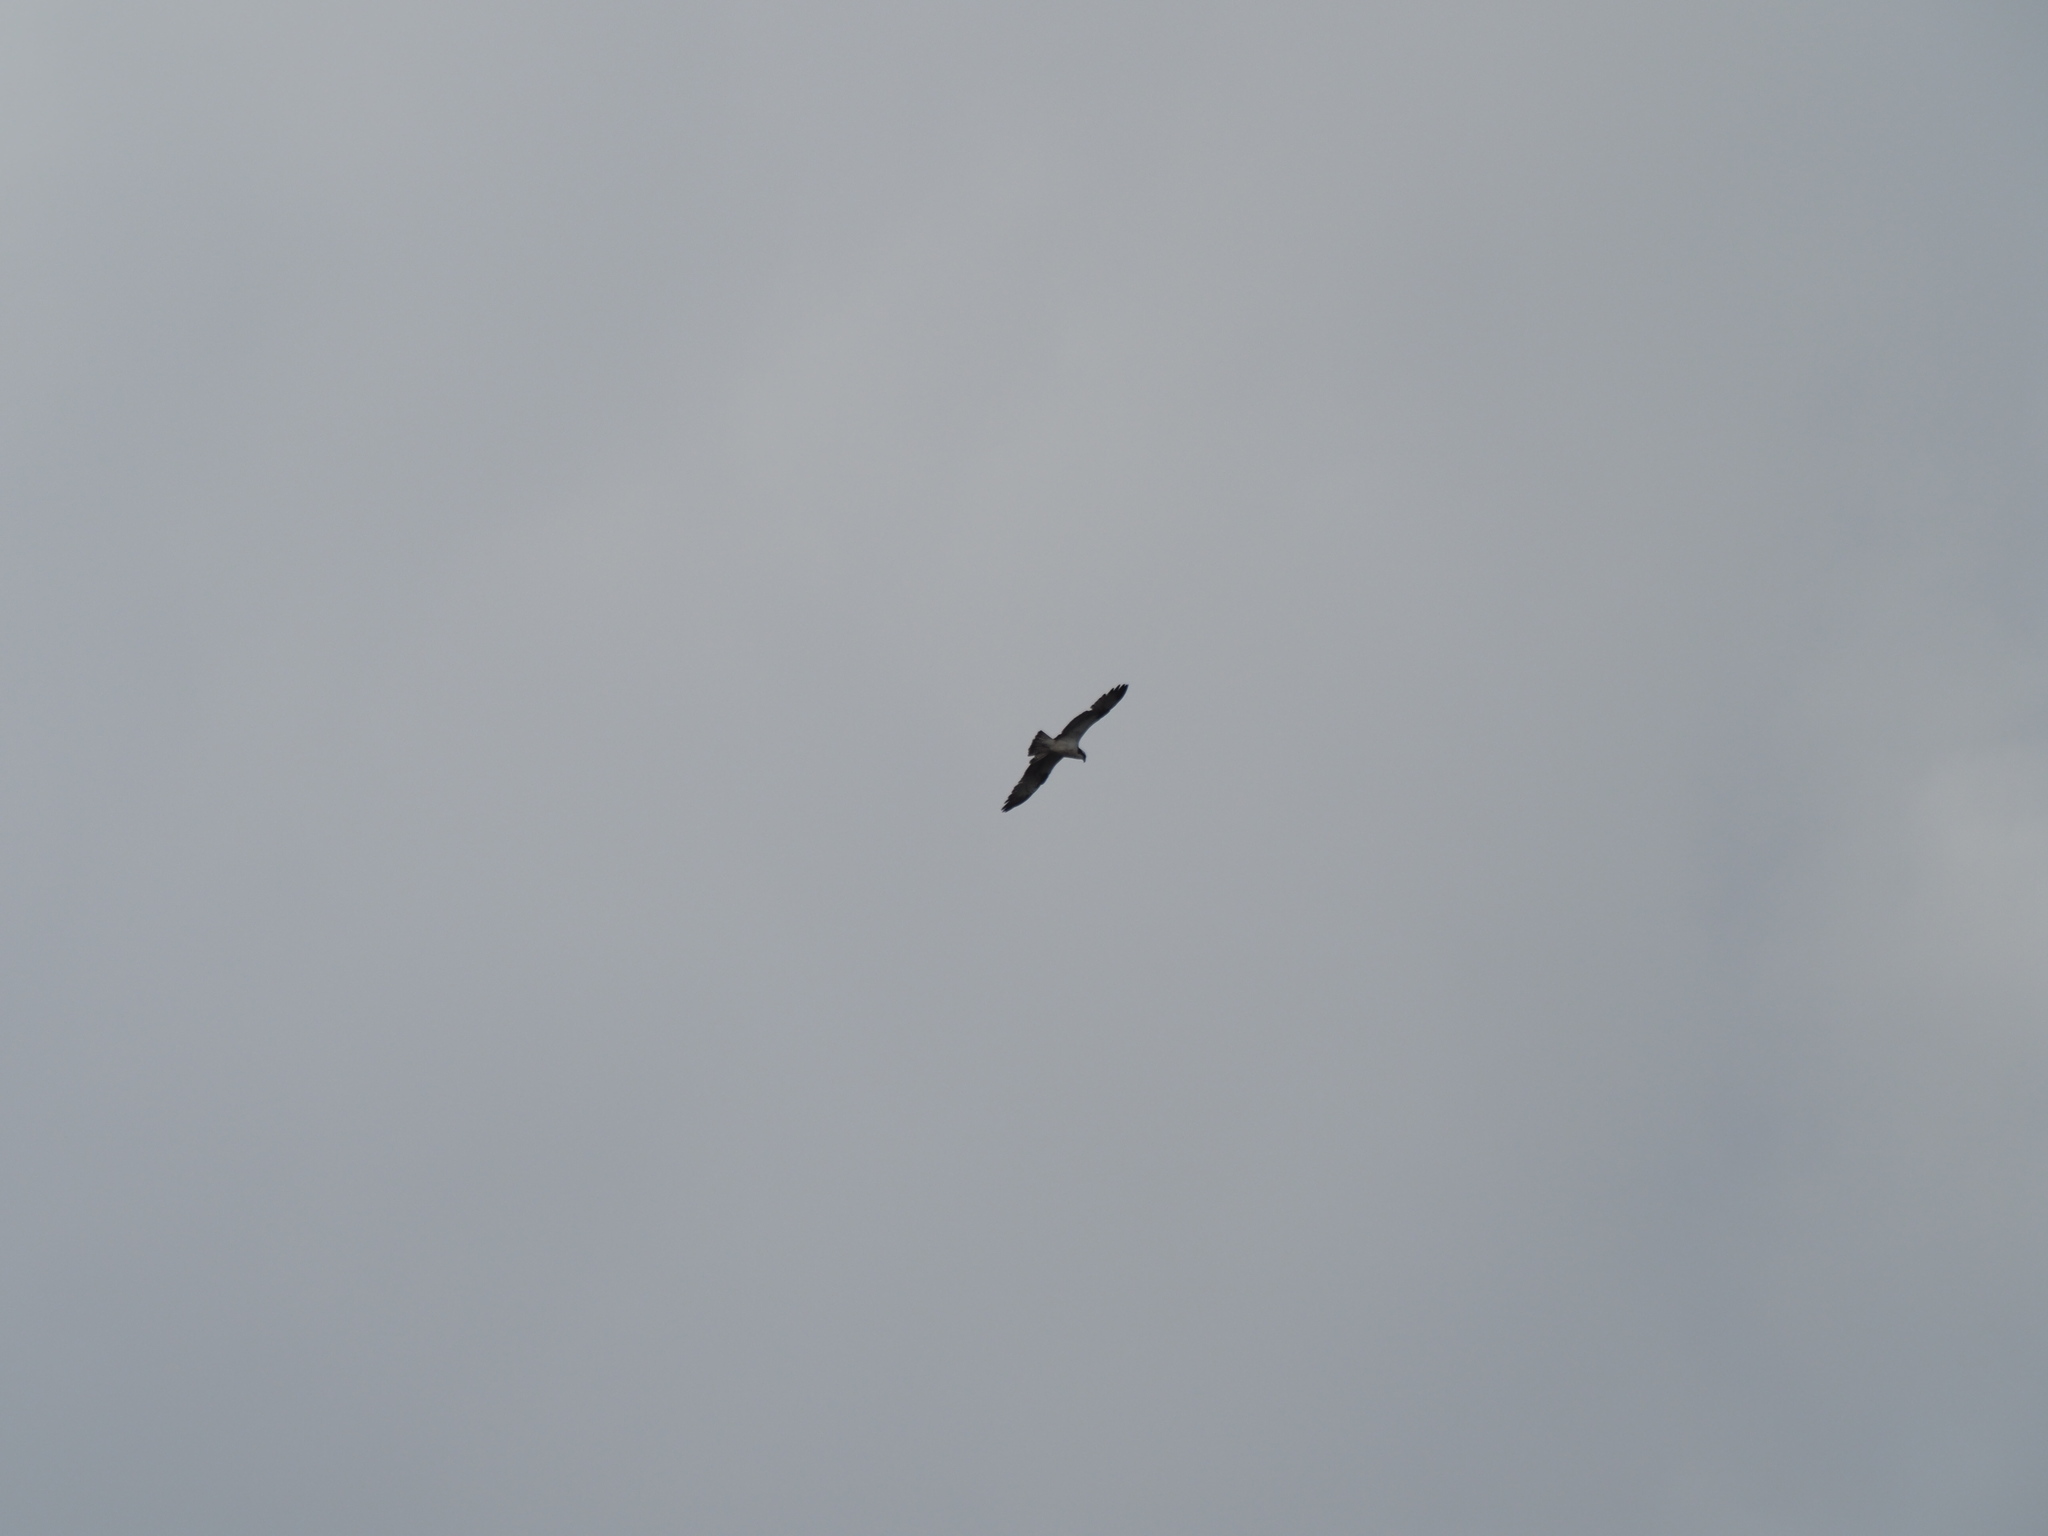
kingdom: Animalia
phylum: Chordata
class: Aves
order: Accipitriformes
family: Pandionidae
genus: Pandion
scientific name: Pandion haliaetus
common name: Osprey
